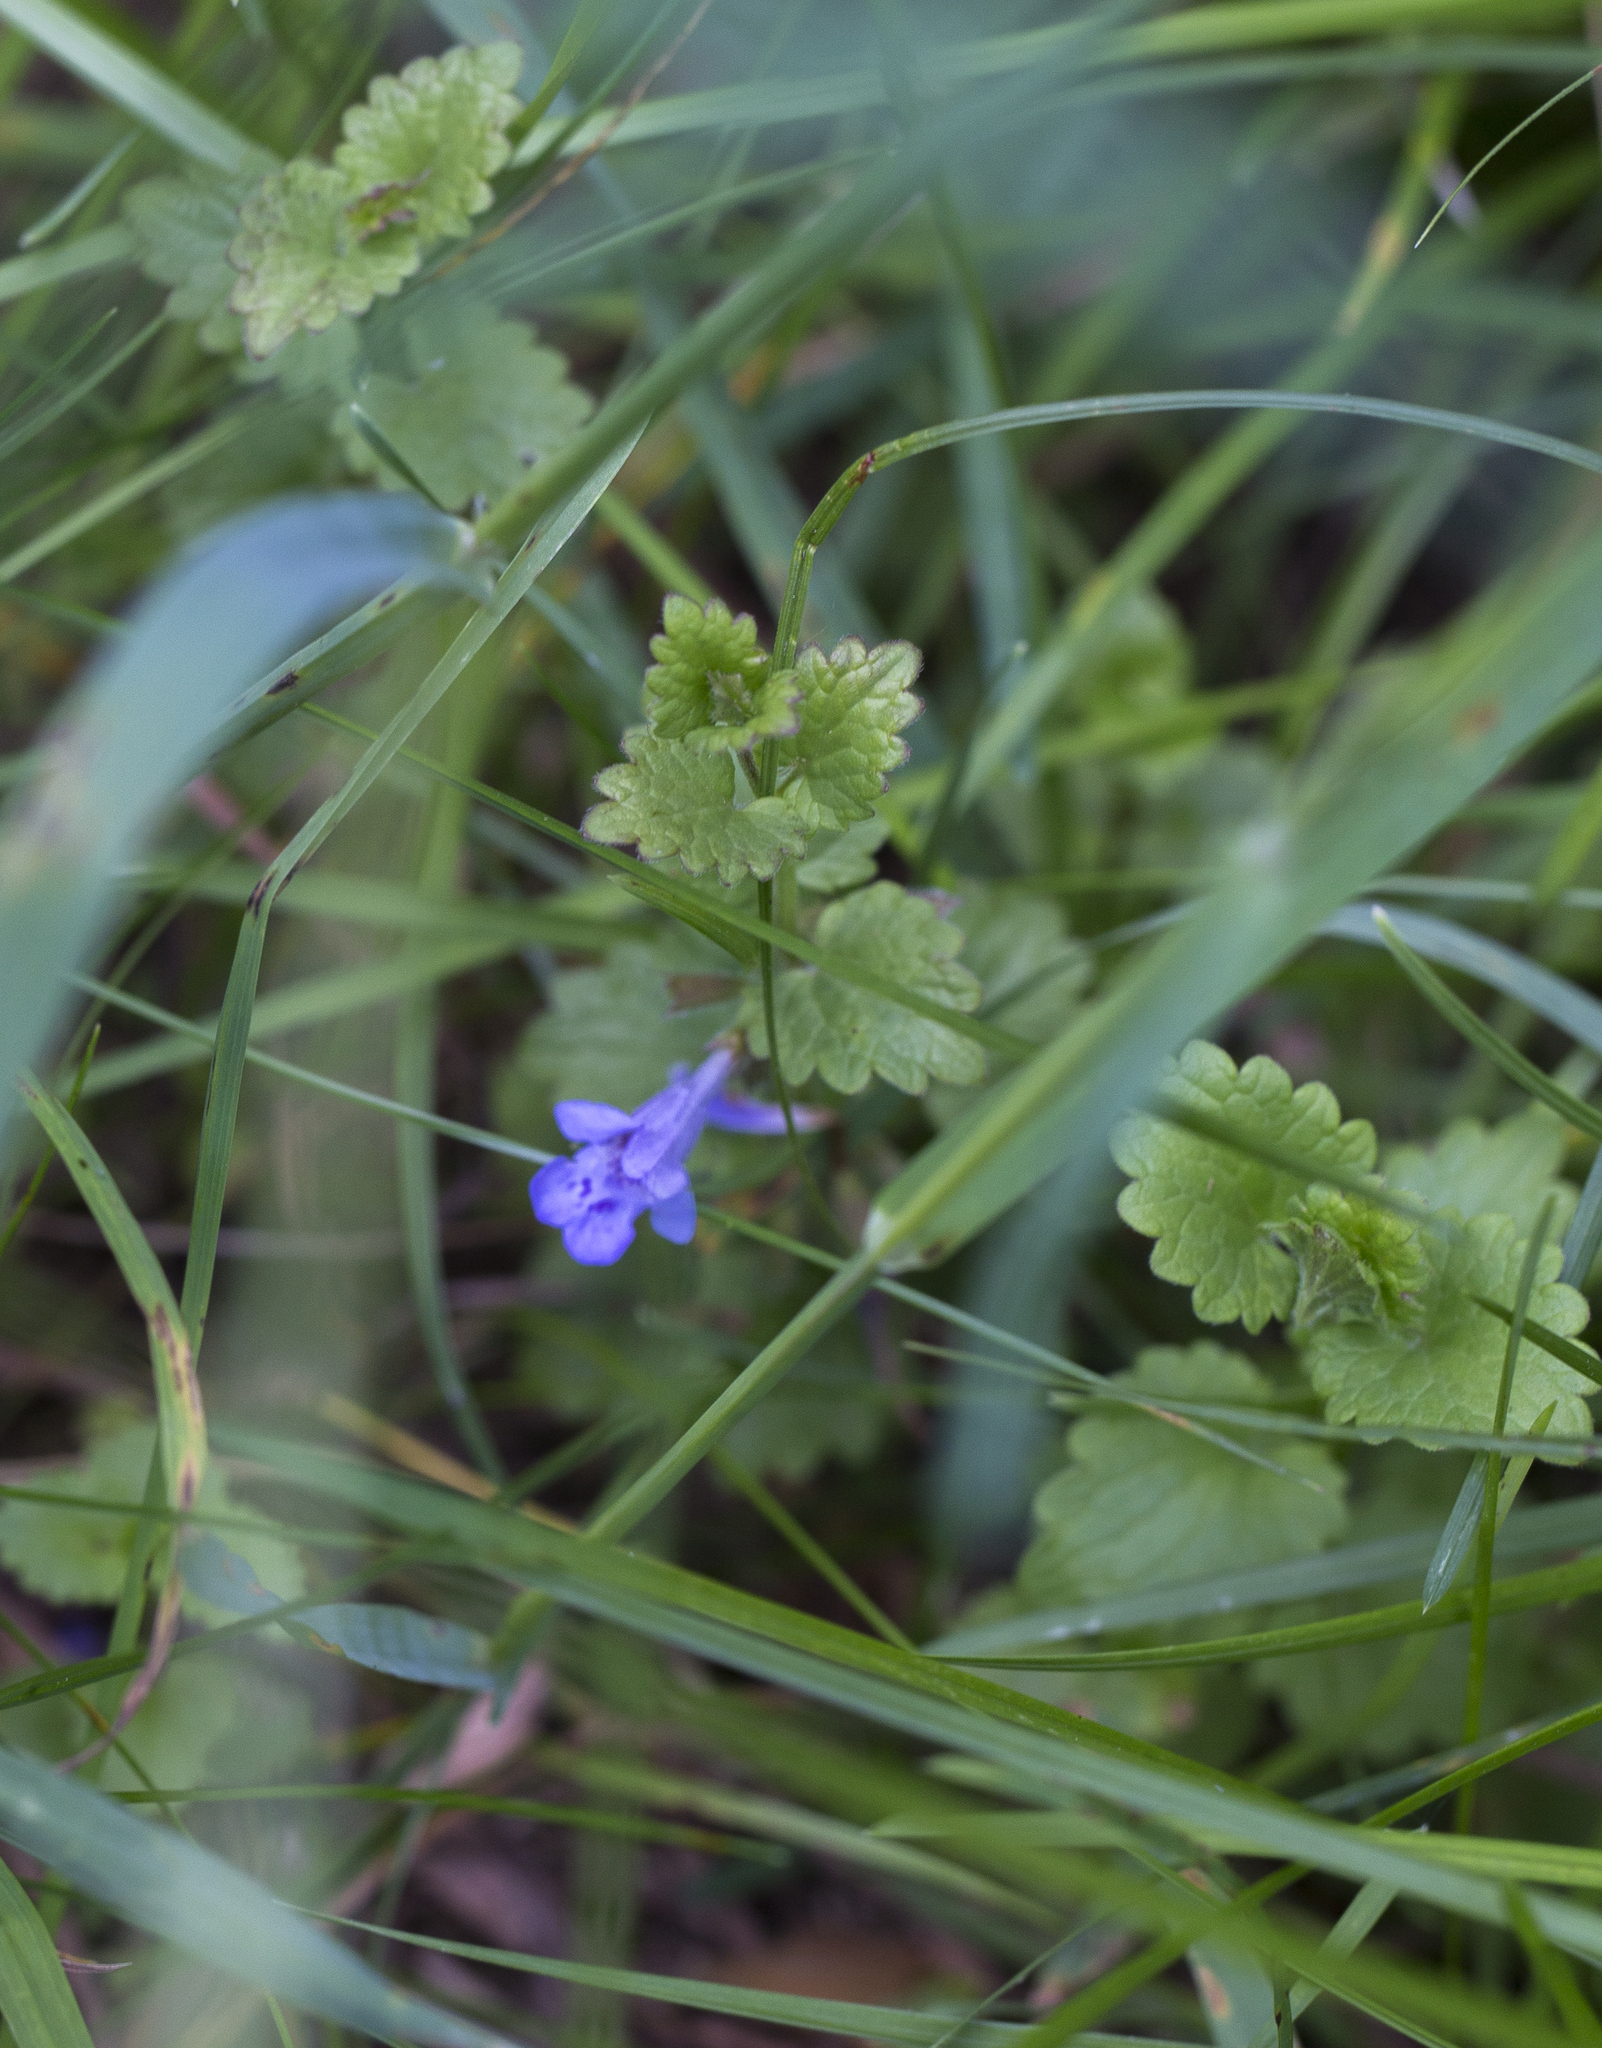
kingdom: Plantae
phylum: Tracheophyta
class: Magnoliopsida
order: Lamiales
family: Lamiaceae
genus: Glechoma
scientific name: Glechoma hederacea
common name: Ground ivy
